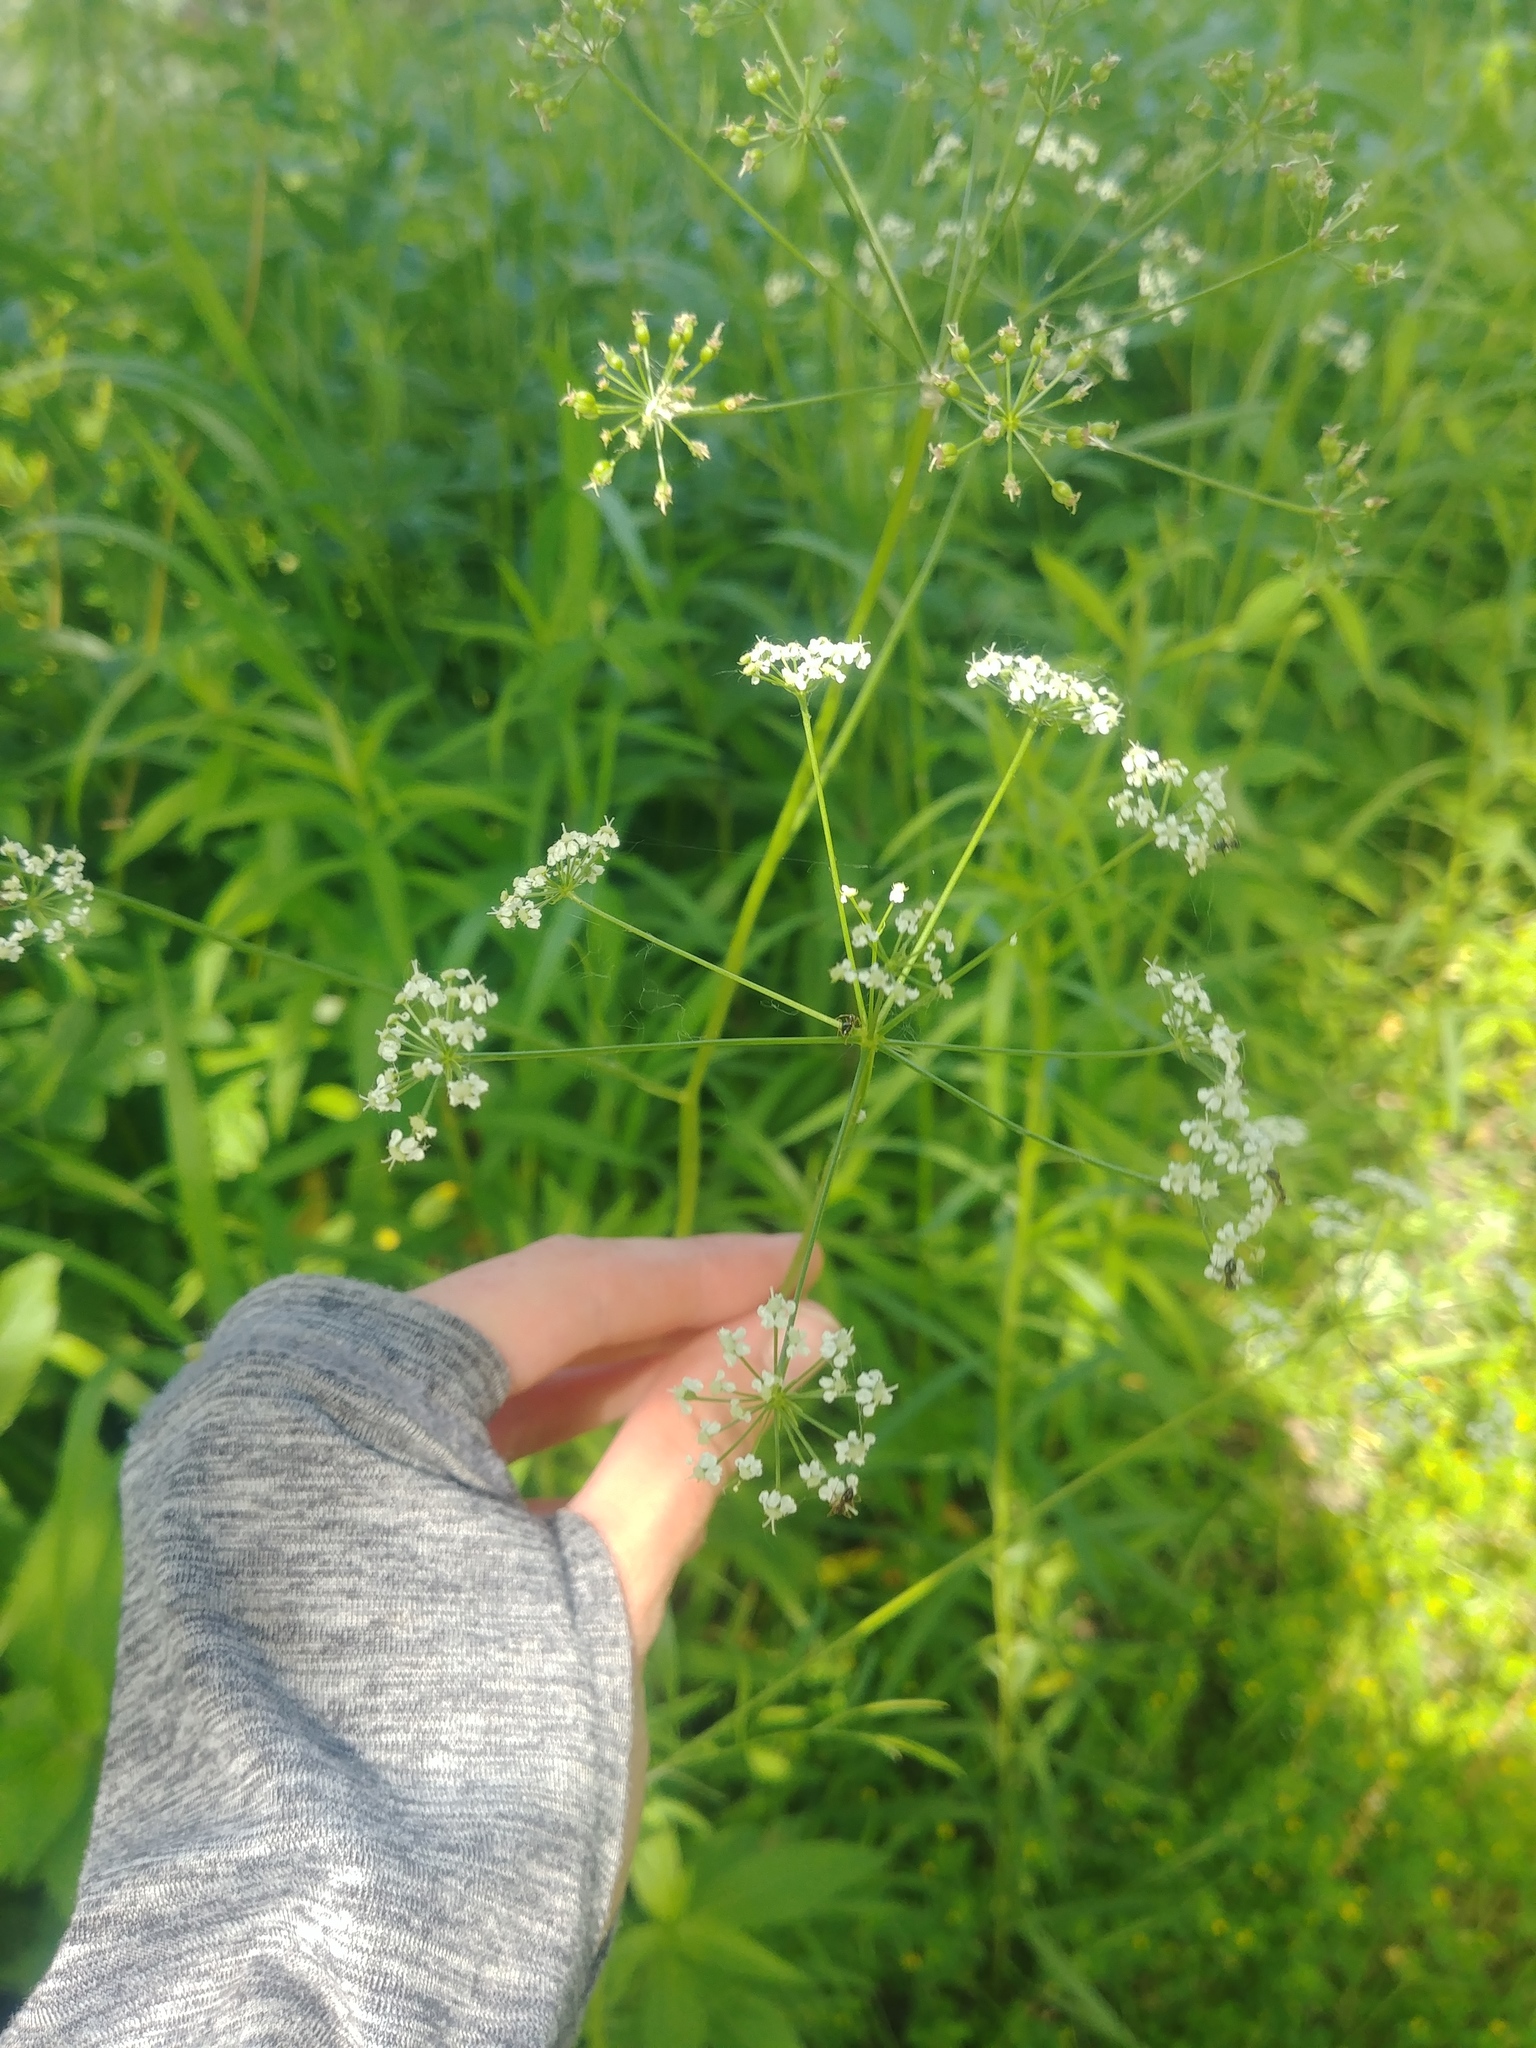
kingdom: Plantae
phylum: Tracheophyta
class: Magnoliopsida
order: Apiales
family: Apiaceae
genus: Perideridia
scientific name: Perideridia americana
